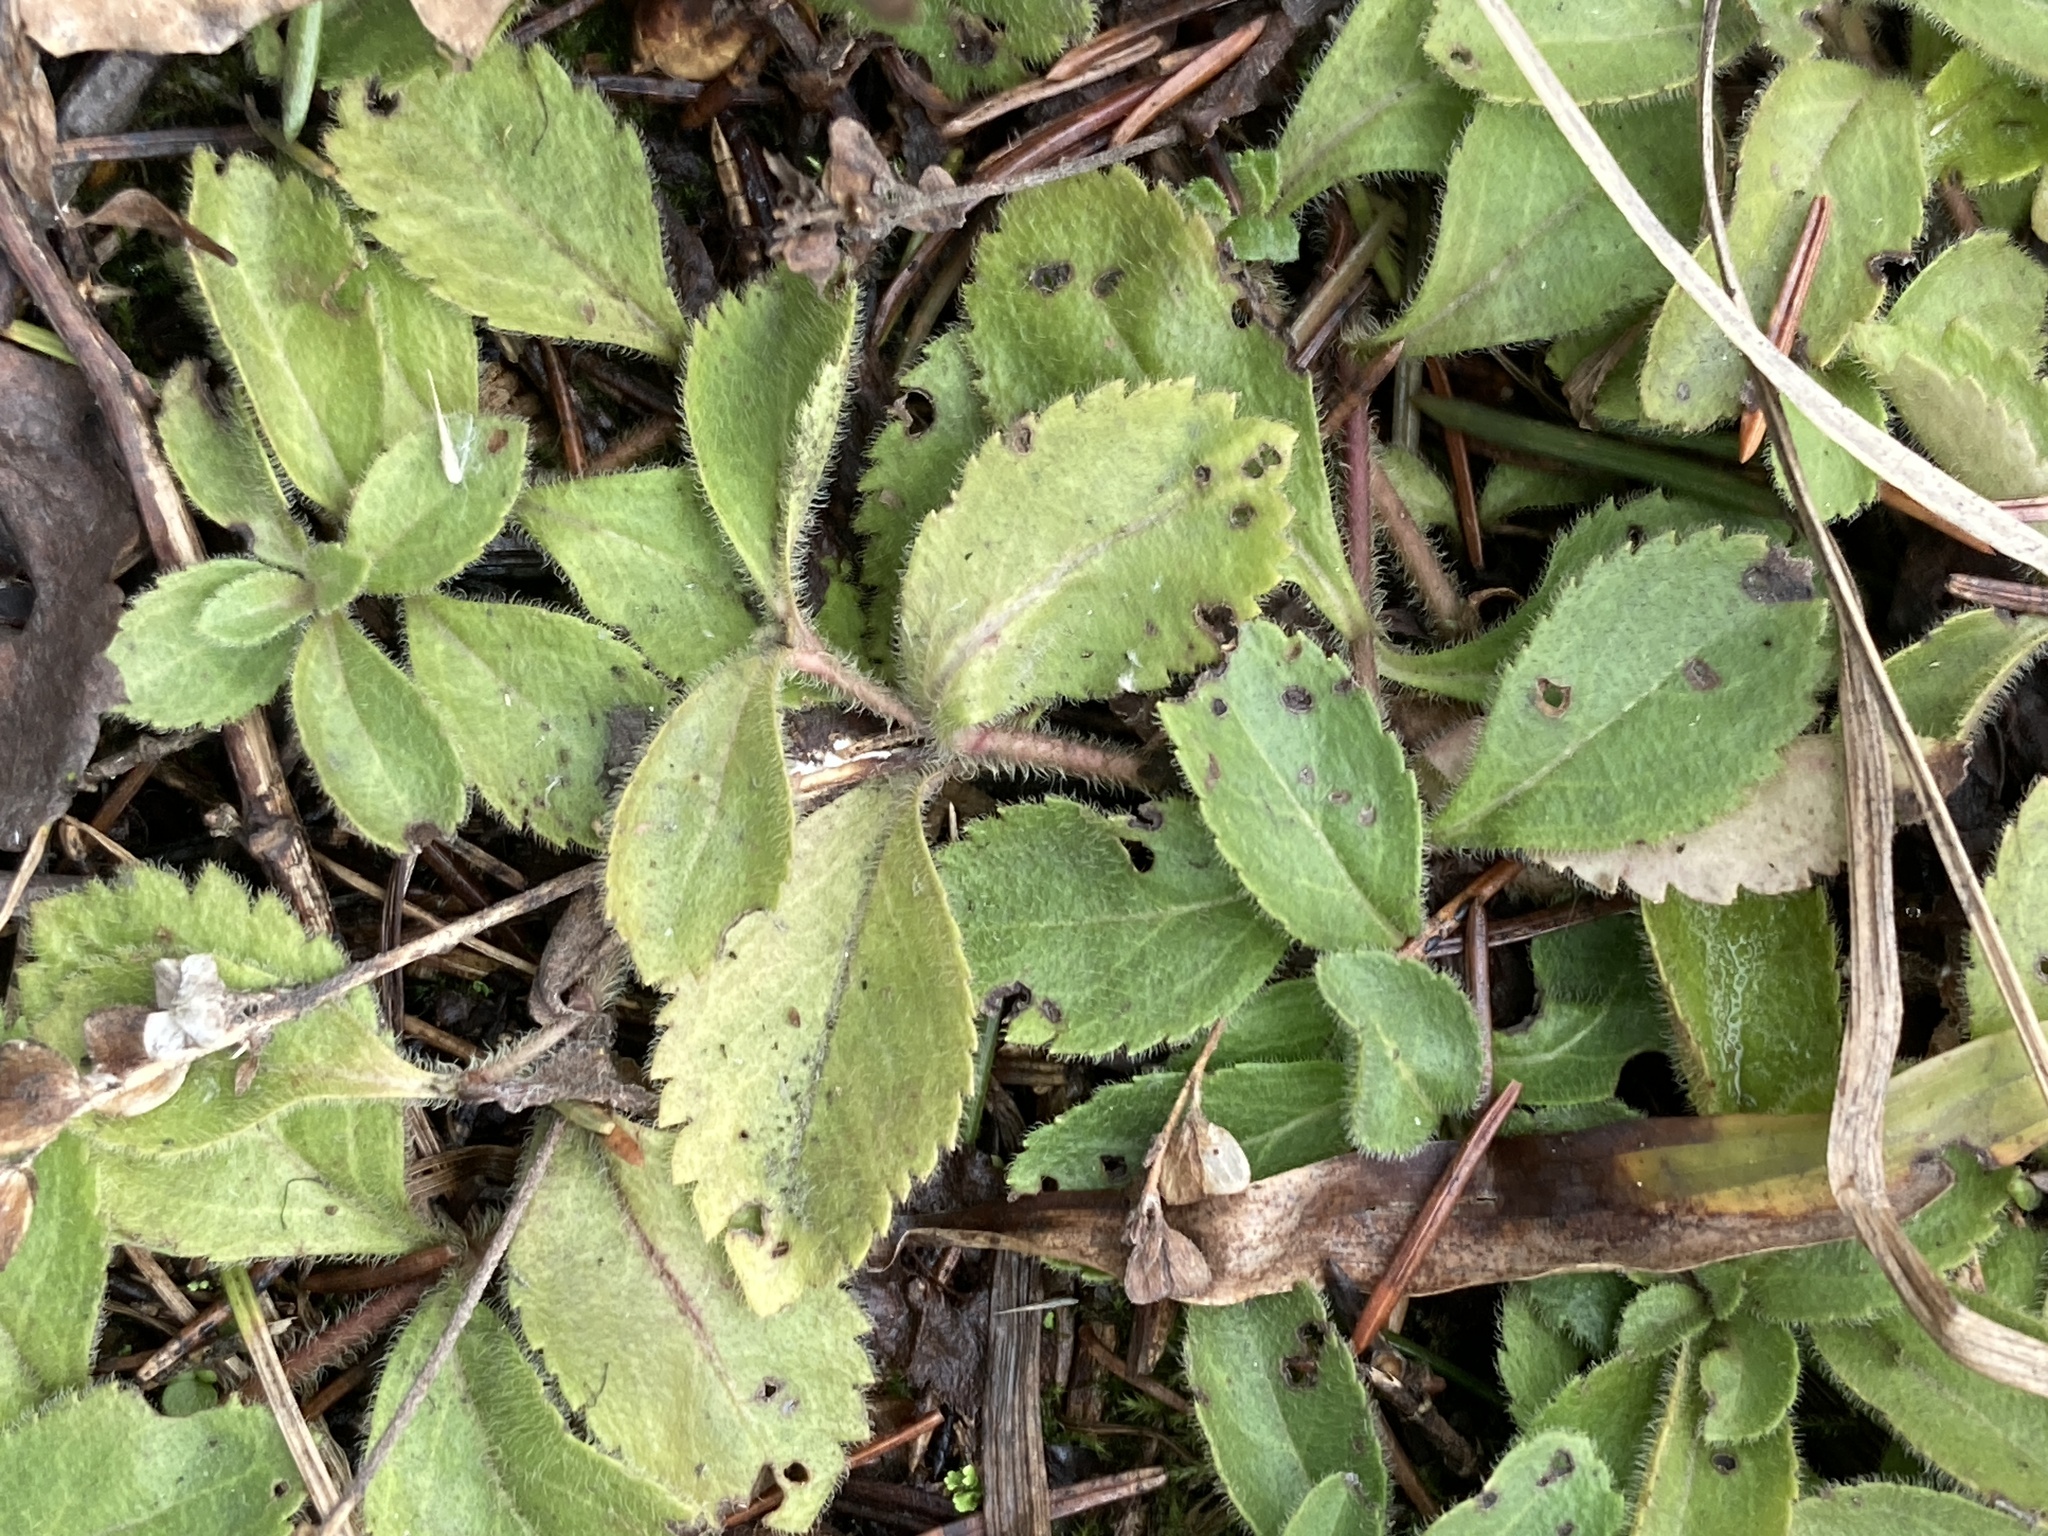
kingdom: Plantae
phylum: Tracheophyta
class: Magnoliopsida
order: Lamiales
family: Plantaginaceae
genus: Veronica
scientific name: Veronica officinalis
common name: Common speedwell
